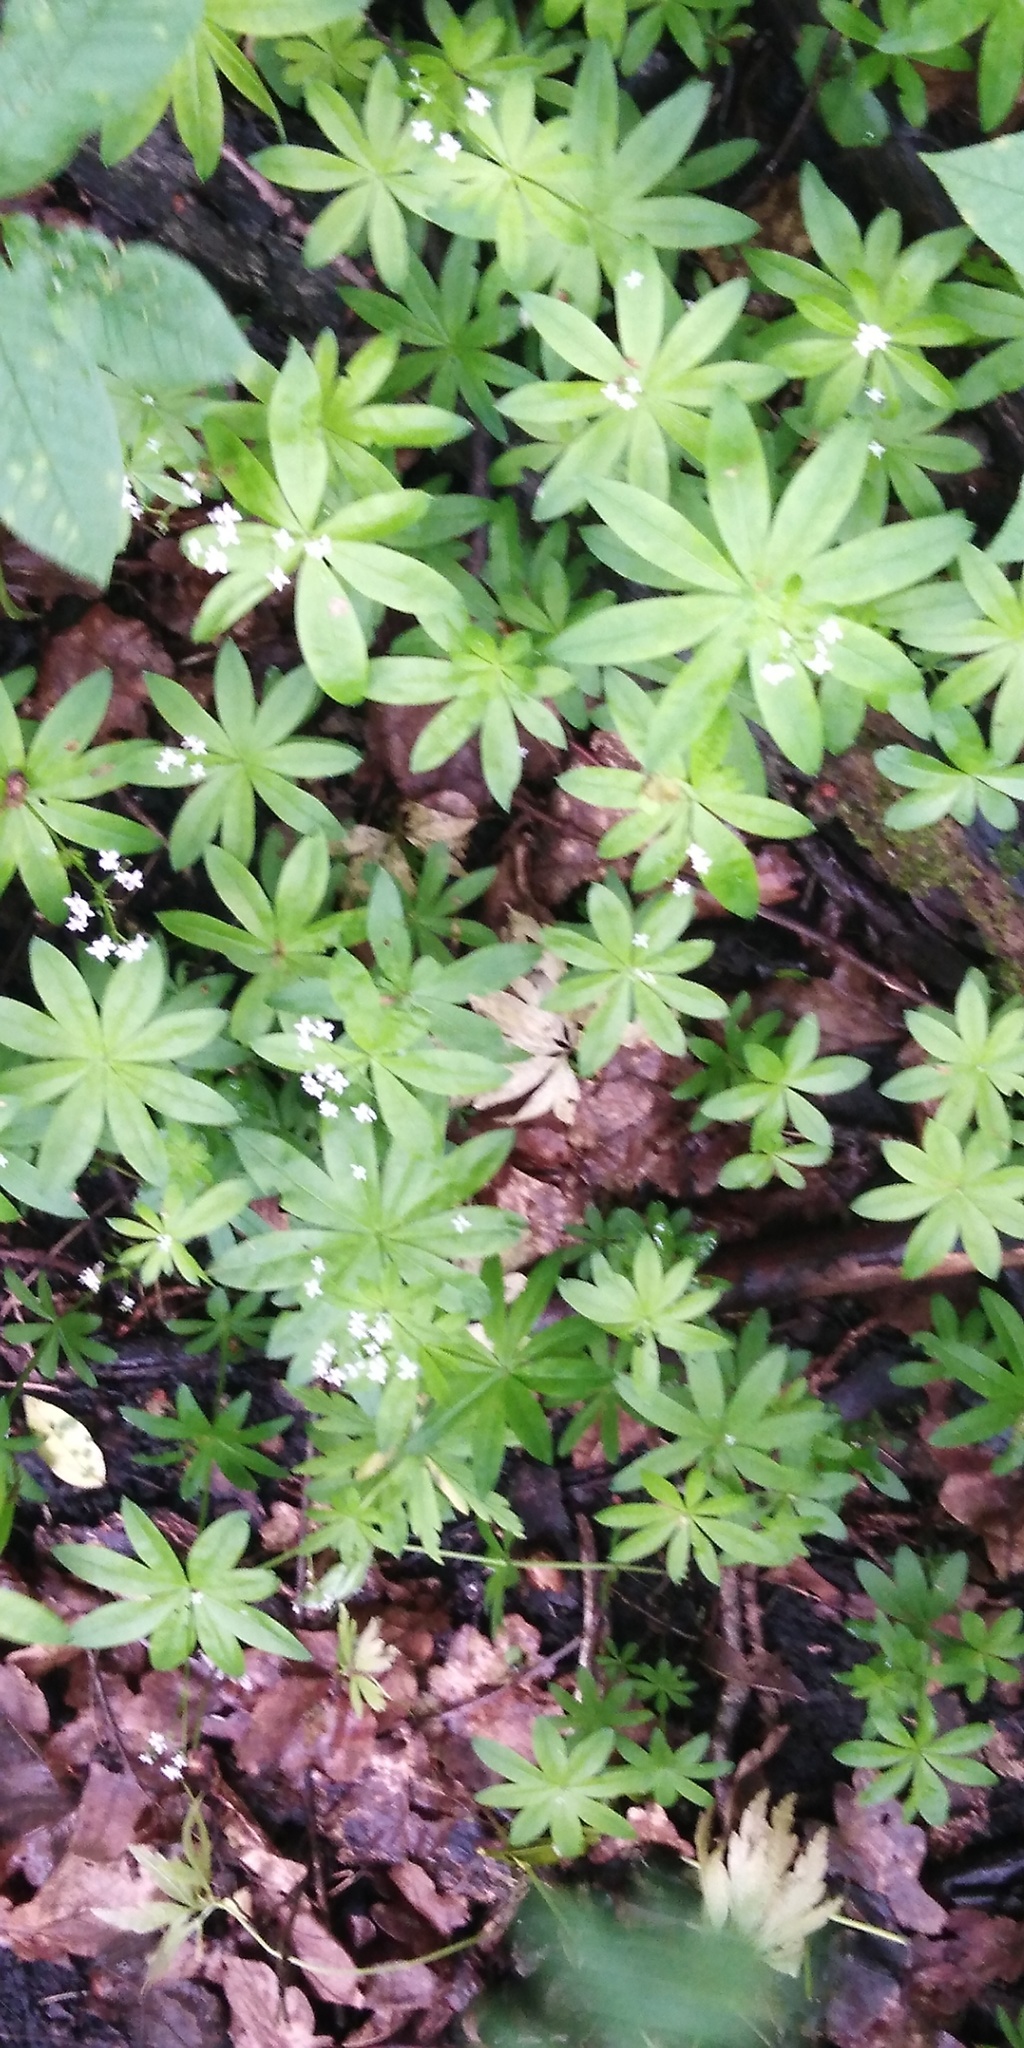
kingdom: Plantae
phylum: Tracheophyta
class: Magnoliopsida
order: Gentianales
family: Rubiaceae
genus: Galium
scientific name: Galium odoratum
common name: Sweet woodruff
